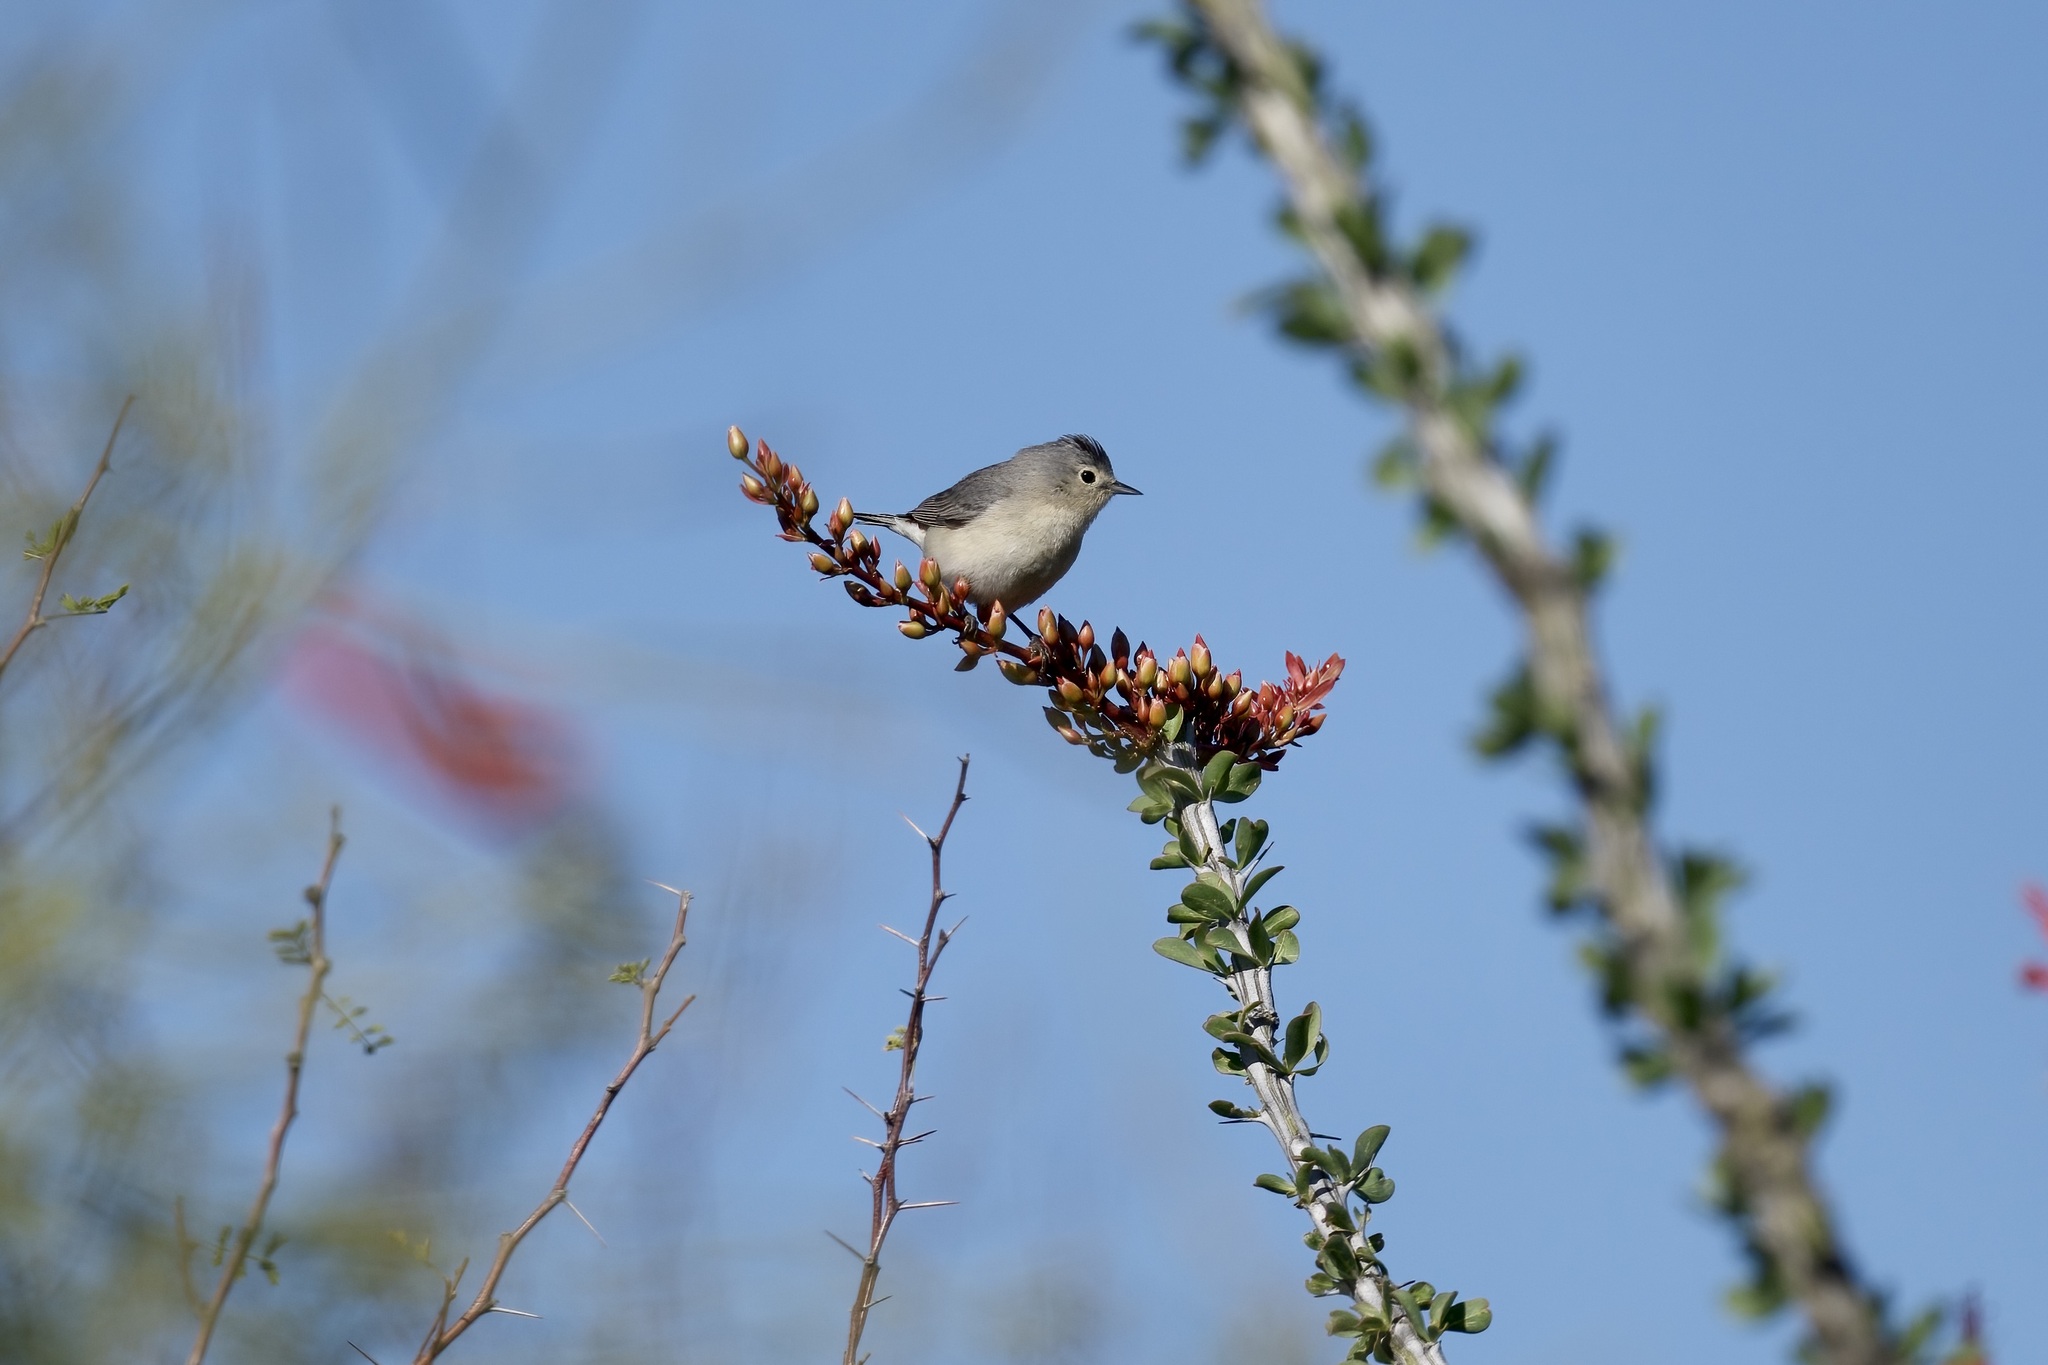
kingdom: Animalia
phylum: Chordata
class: Aves
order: Passeriformes
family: Parulidae
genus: Leiothlypis
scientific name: Leiothlypis luciae
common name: Lucy's warbler
